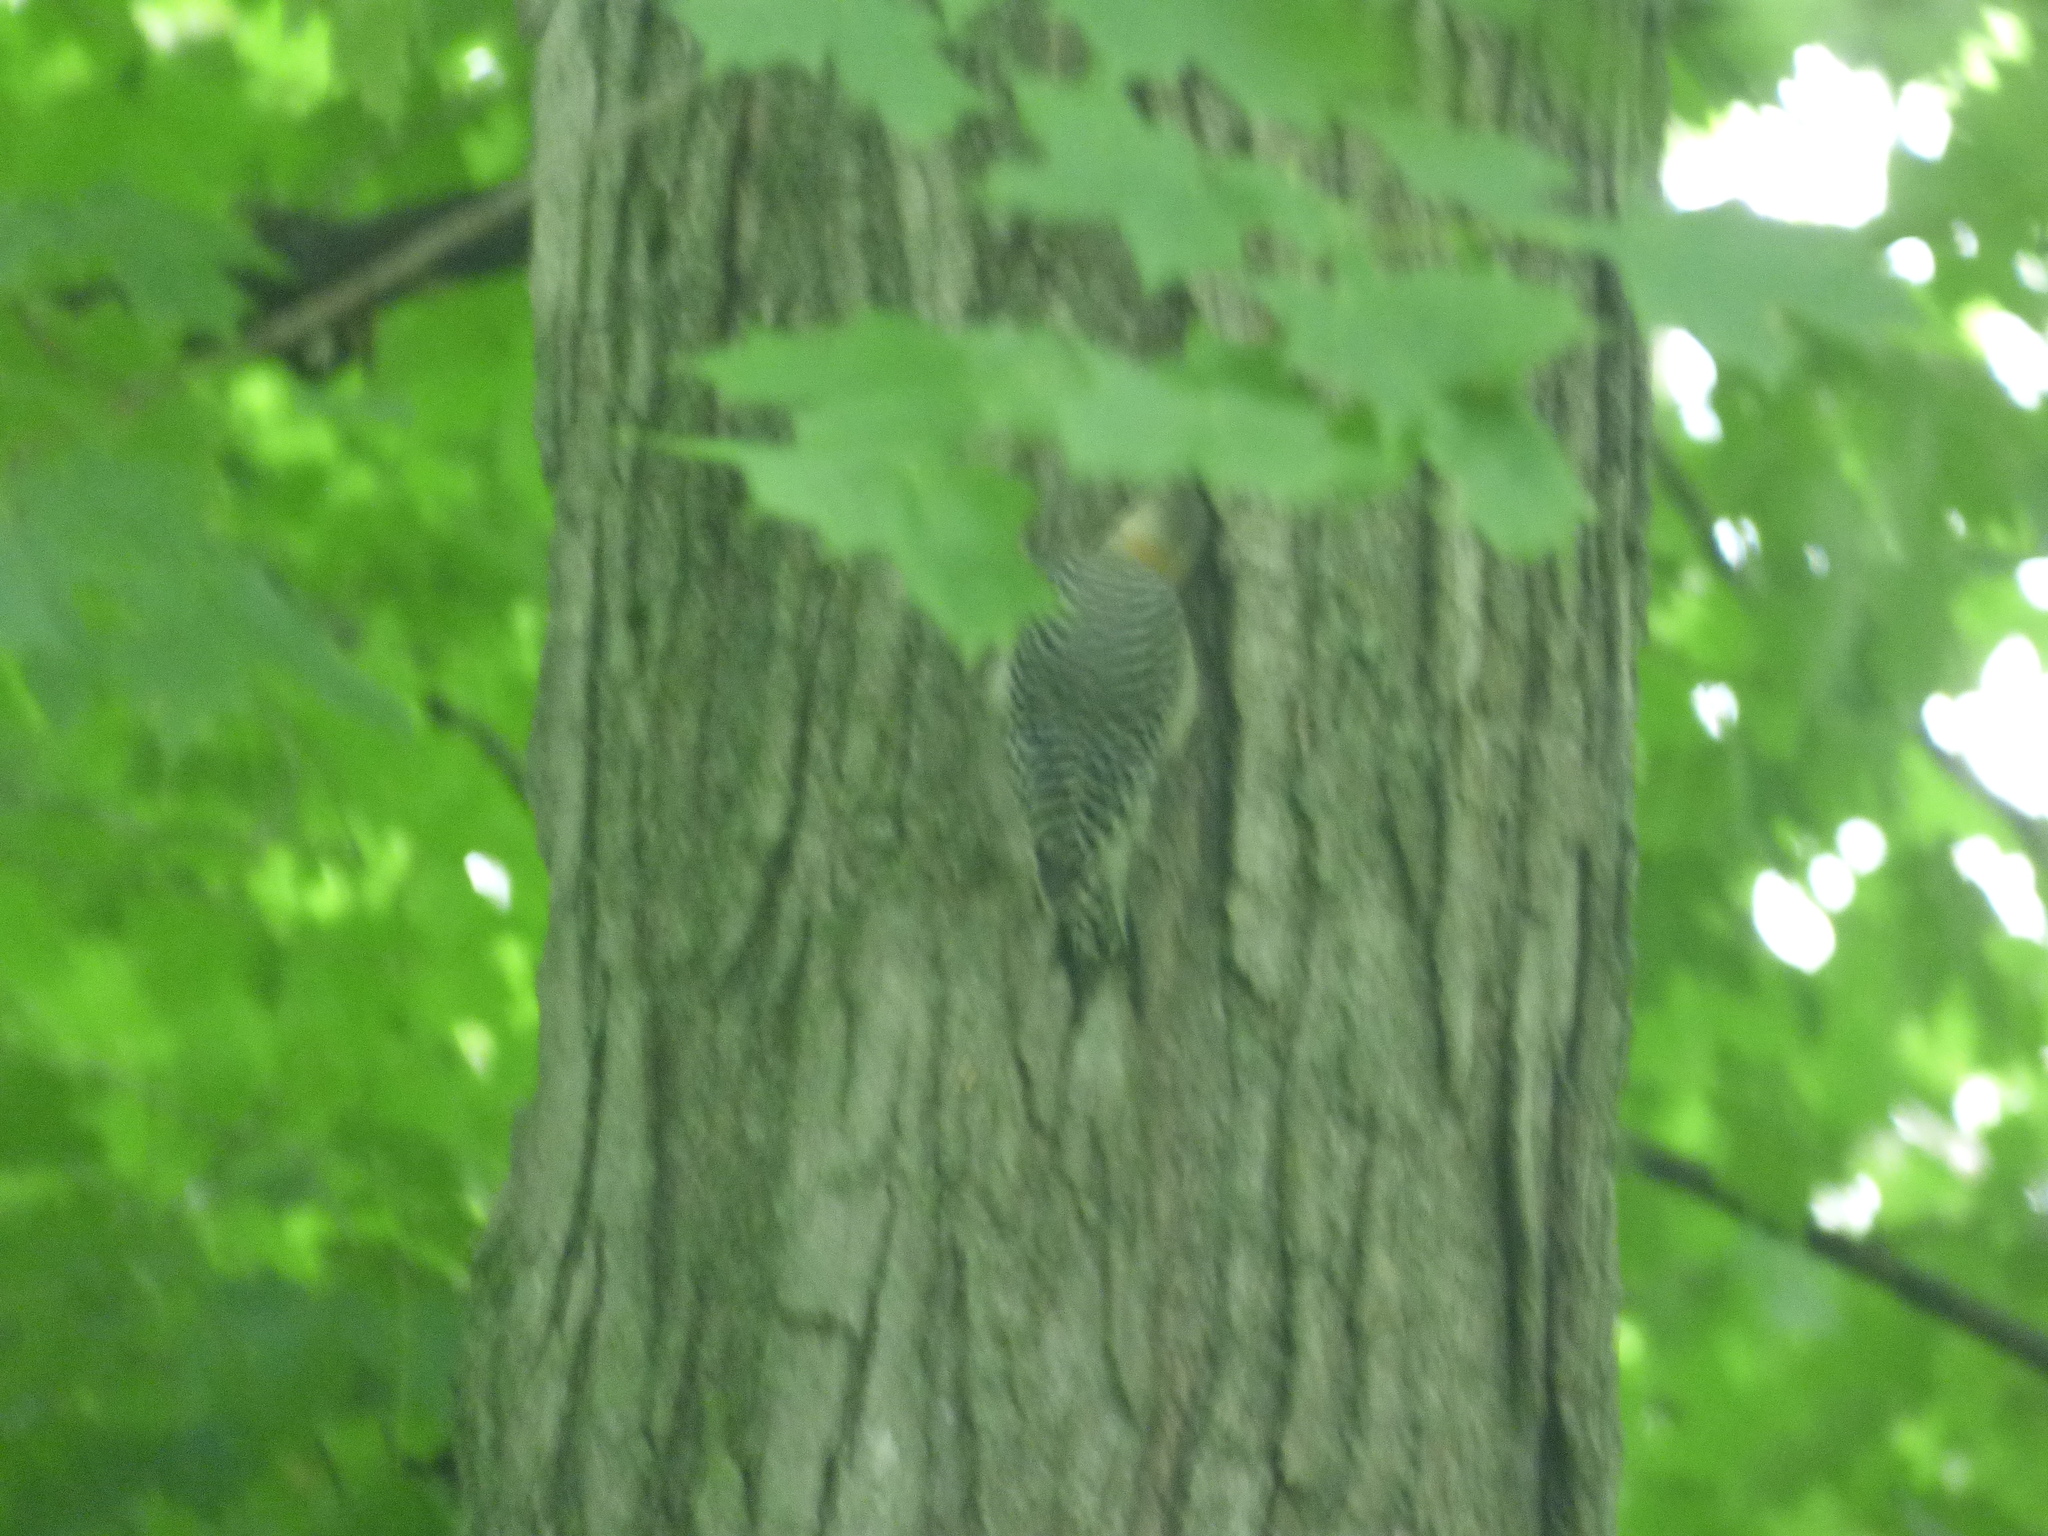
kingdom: Animalia
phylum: Chordata
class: Aves
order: Piciformes
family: Picidae
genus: Melanerpes
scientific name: Melanerpes carolinus
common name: Red-bellied woodpecker
